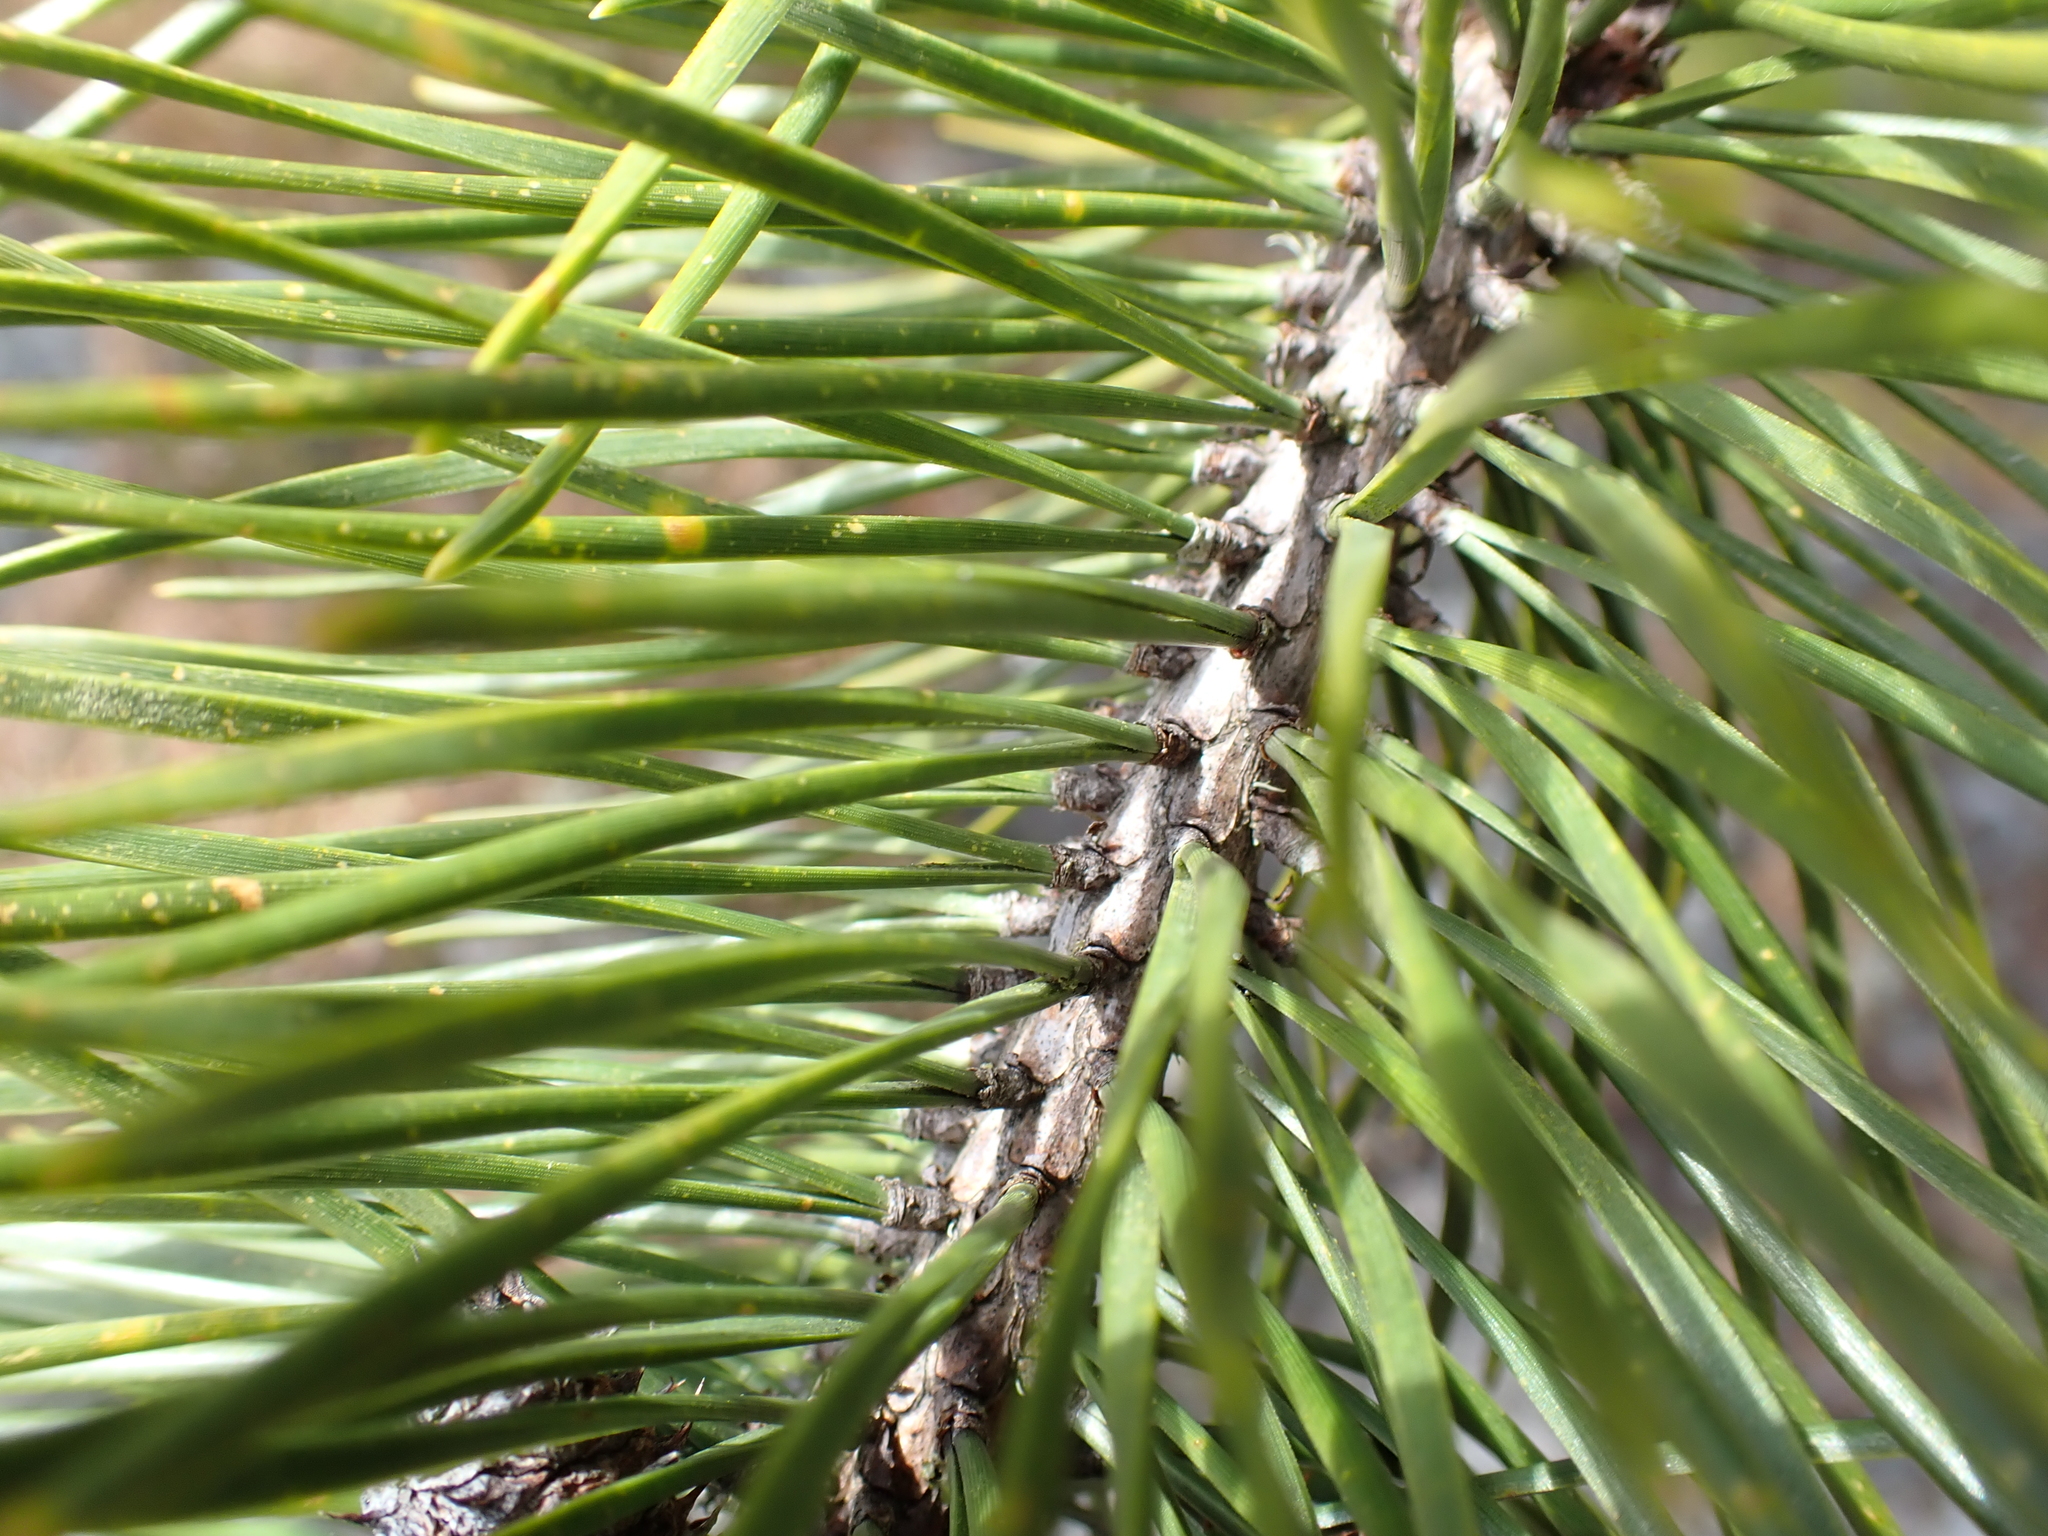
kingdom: Plantae
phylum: Tracheophyta
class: Pinopsida
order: Pinales
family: Pinaceae
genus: Pinus
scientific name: Pinus contorta
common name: Lodgepole pine
